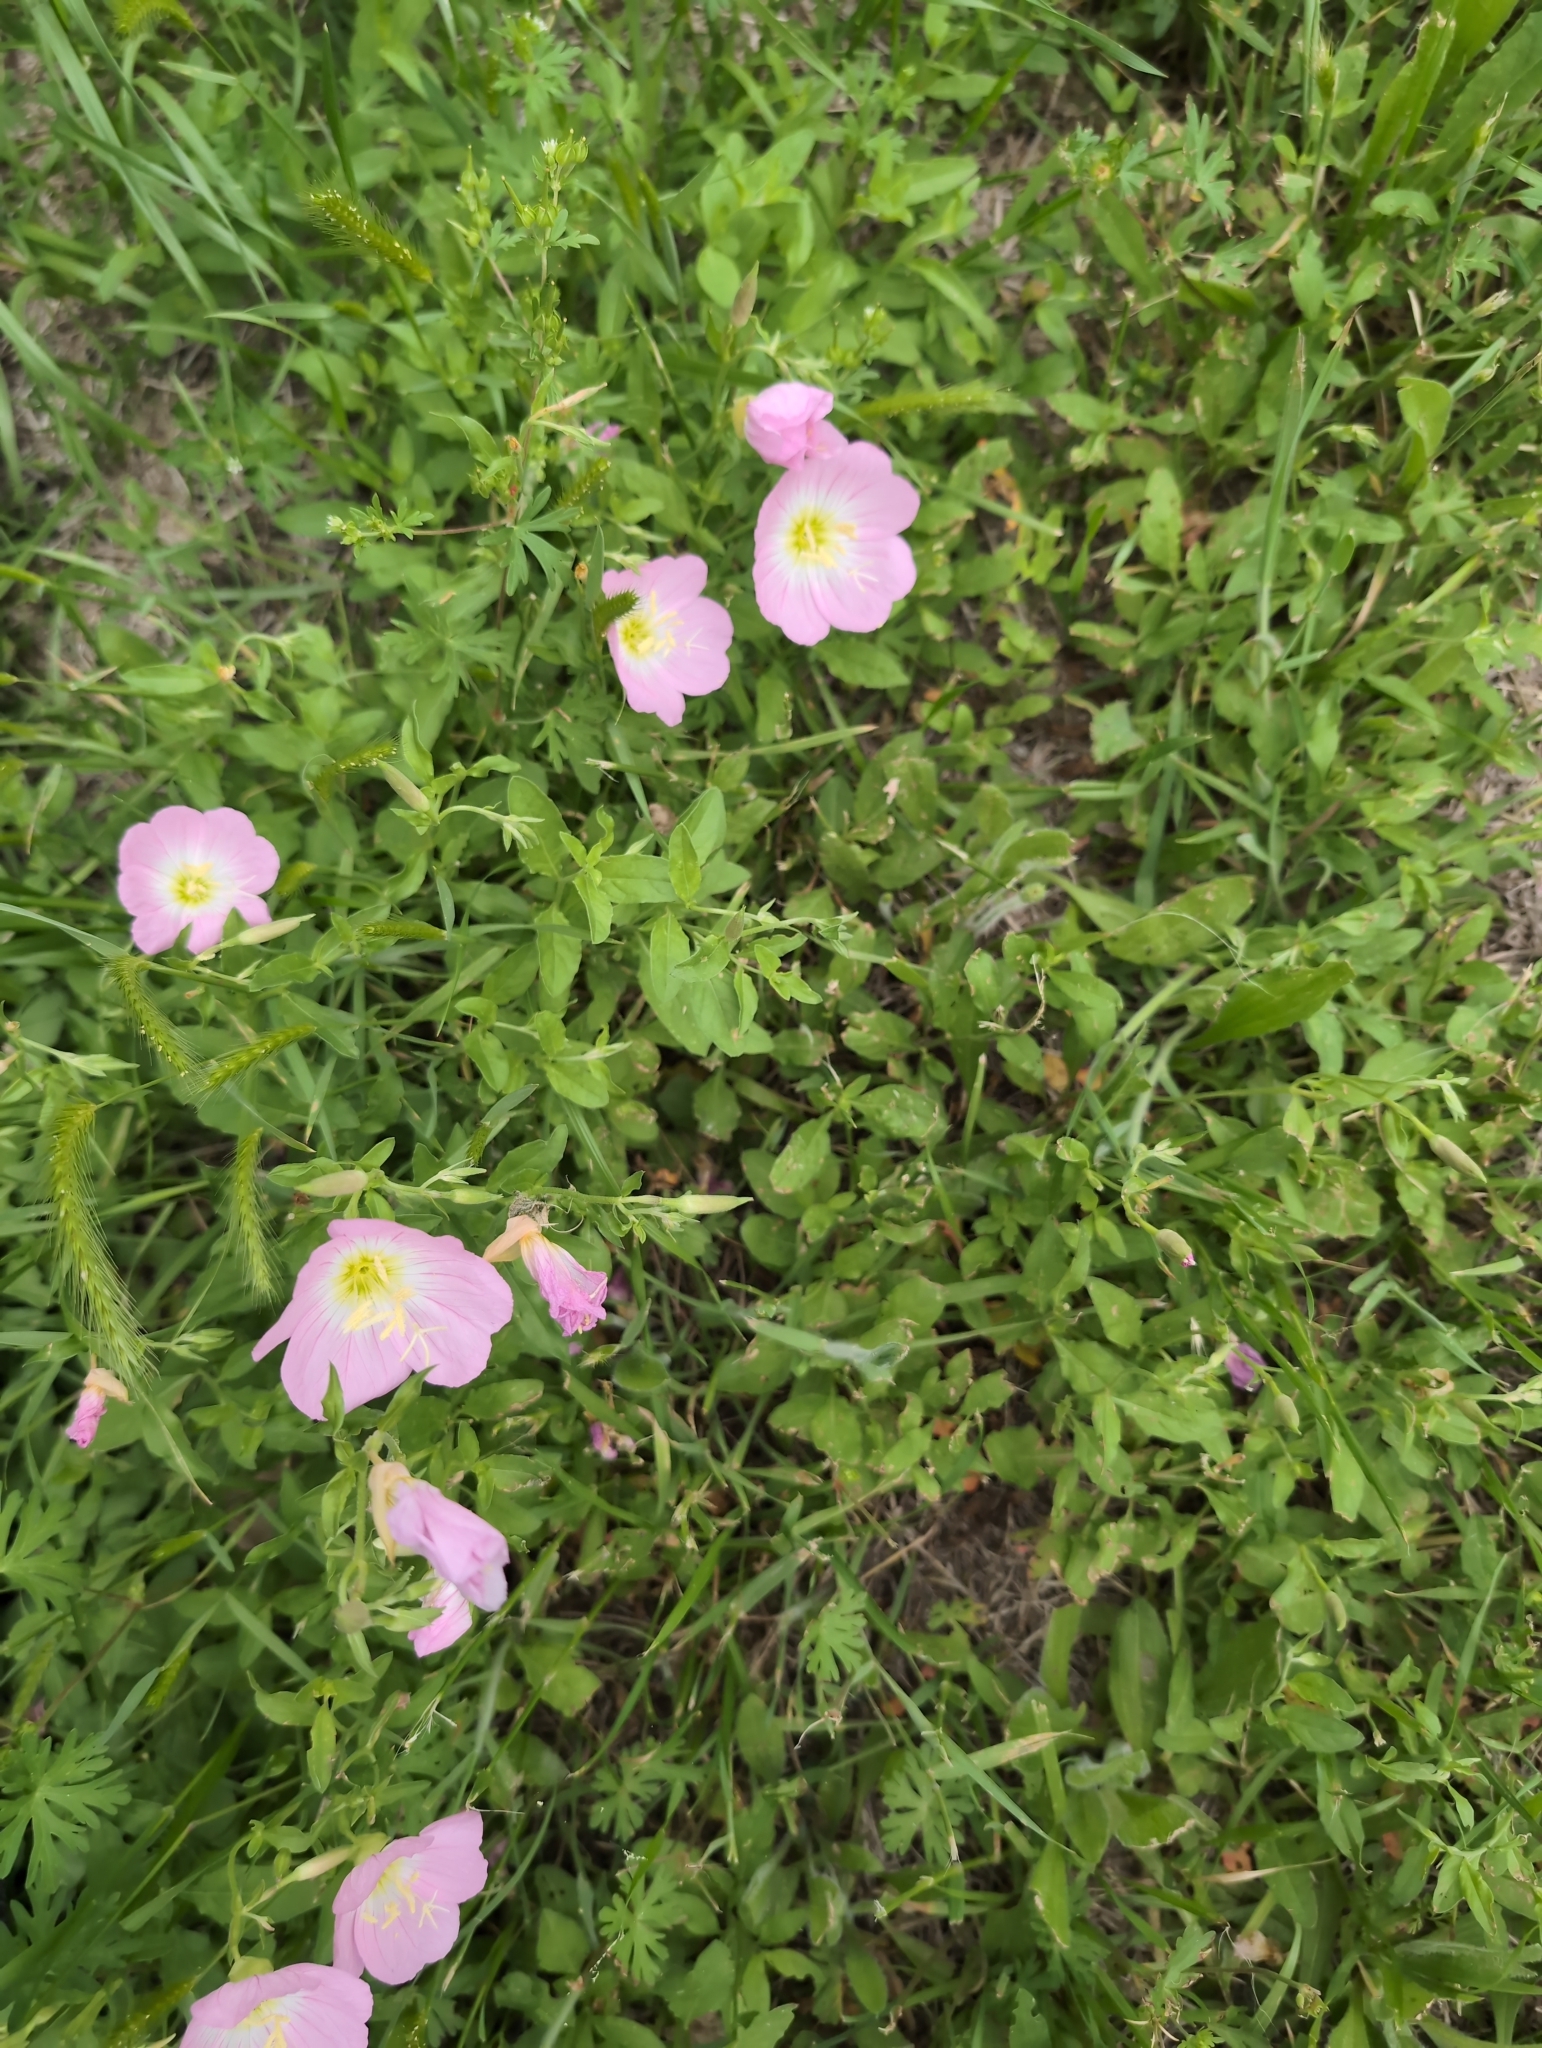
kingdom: Plantae
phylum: Tracheophyta
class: Magnoliopsida
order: Myrtales
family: Onagraceae
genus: Oenothera
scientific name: Oenothera speciosa
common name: White evening-primrose
